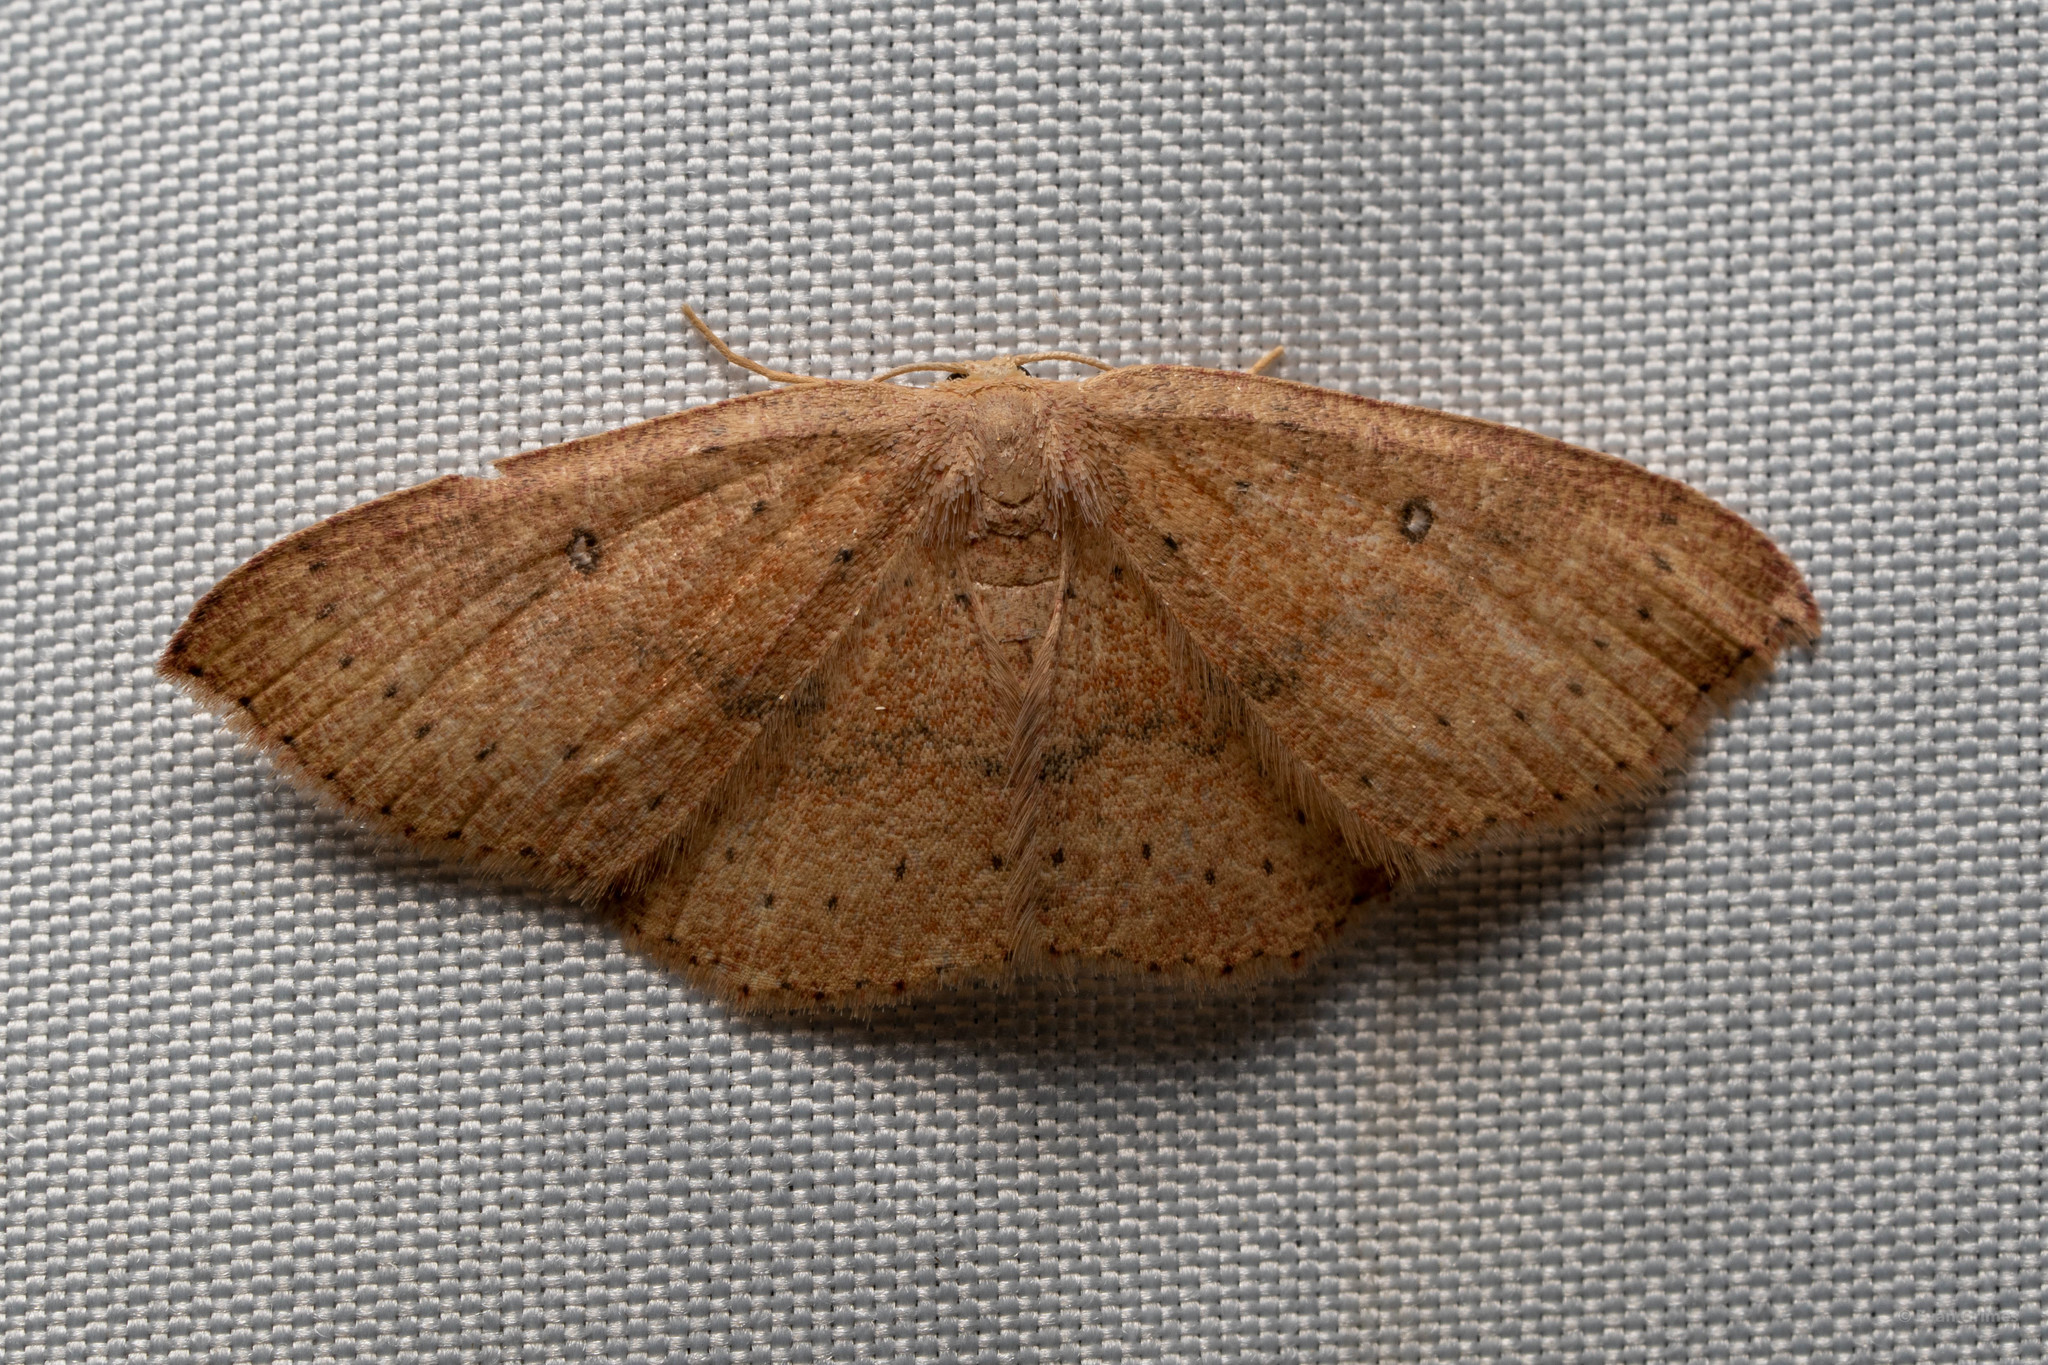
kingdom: Animalia
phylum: Arthropoda
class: Insecta
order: Lepidoptera
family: Geometridae
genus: Cyclophora
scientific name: Cyclophora packardi
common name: Packard's wave
